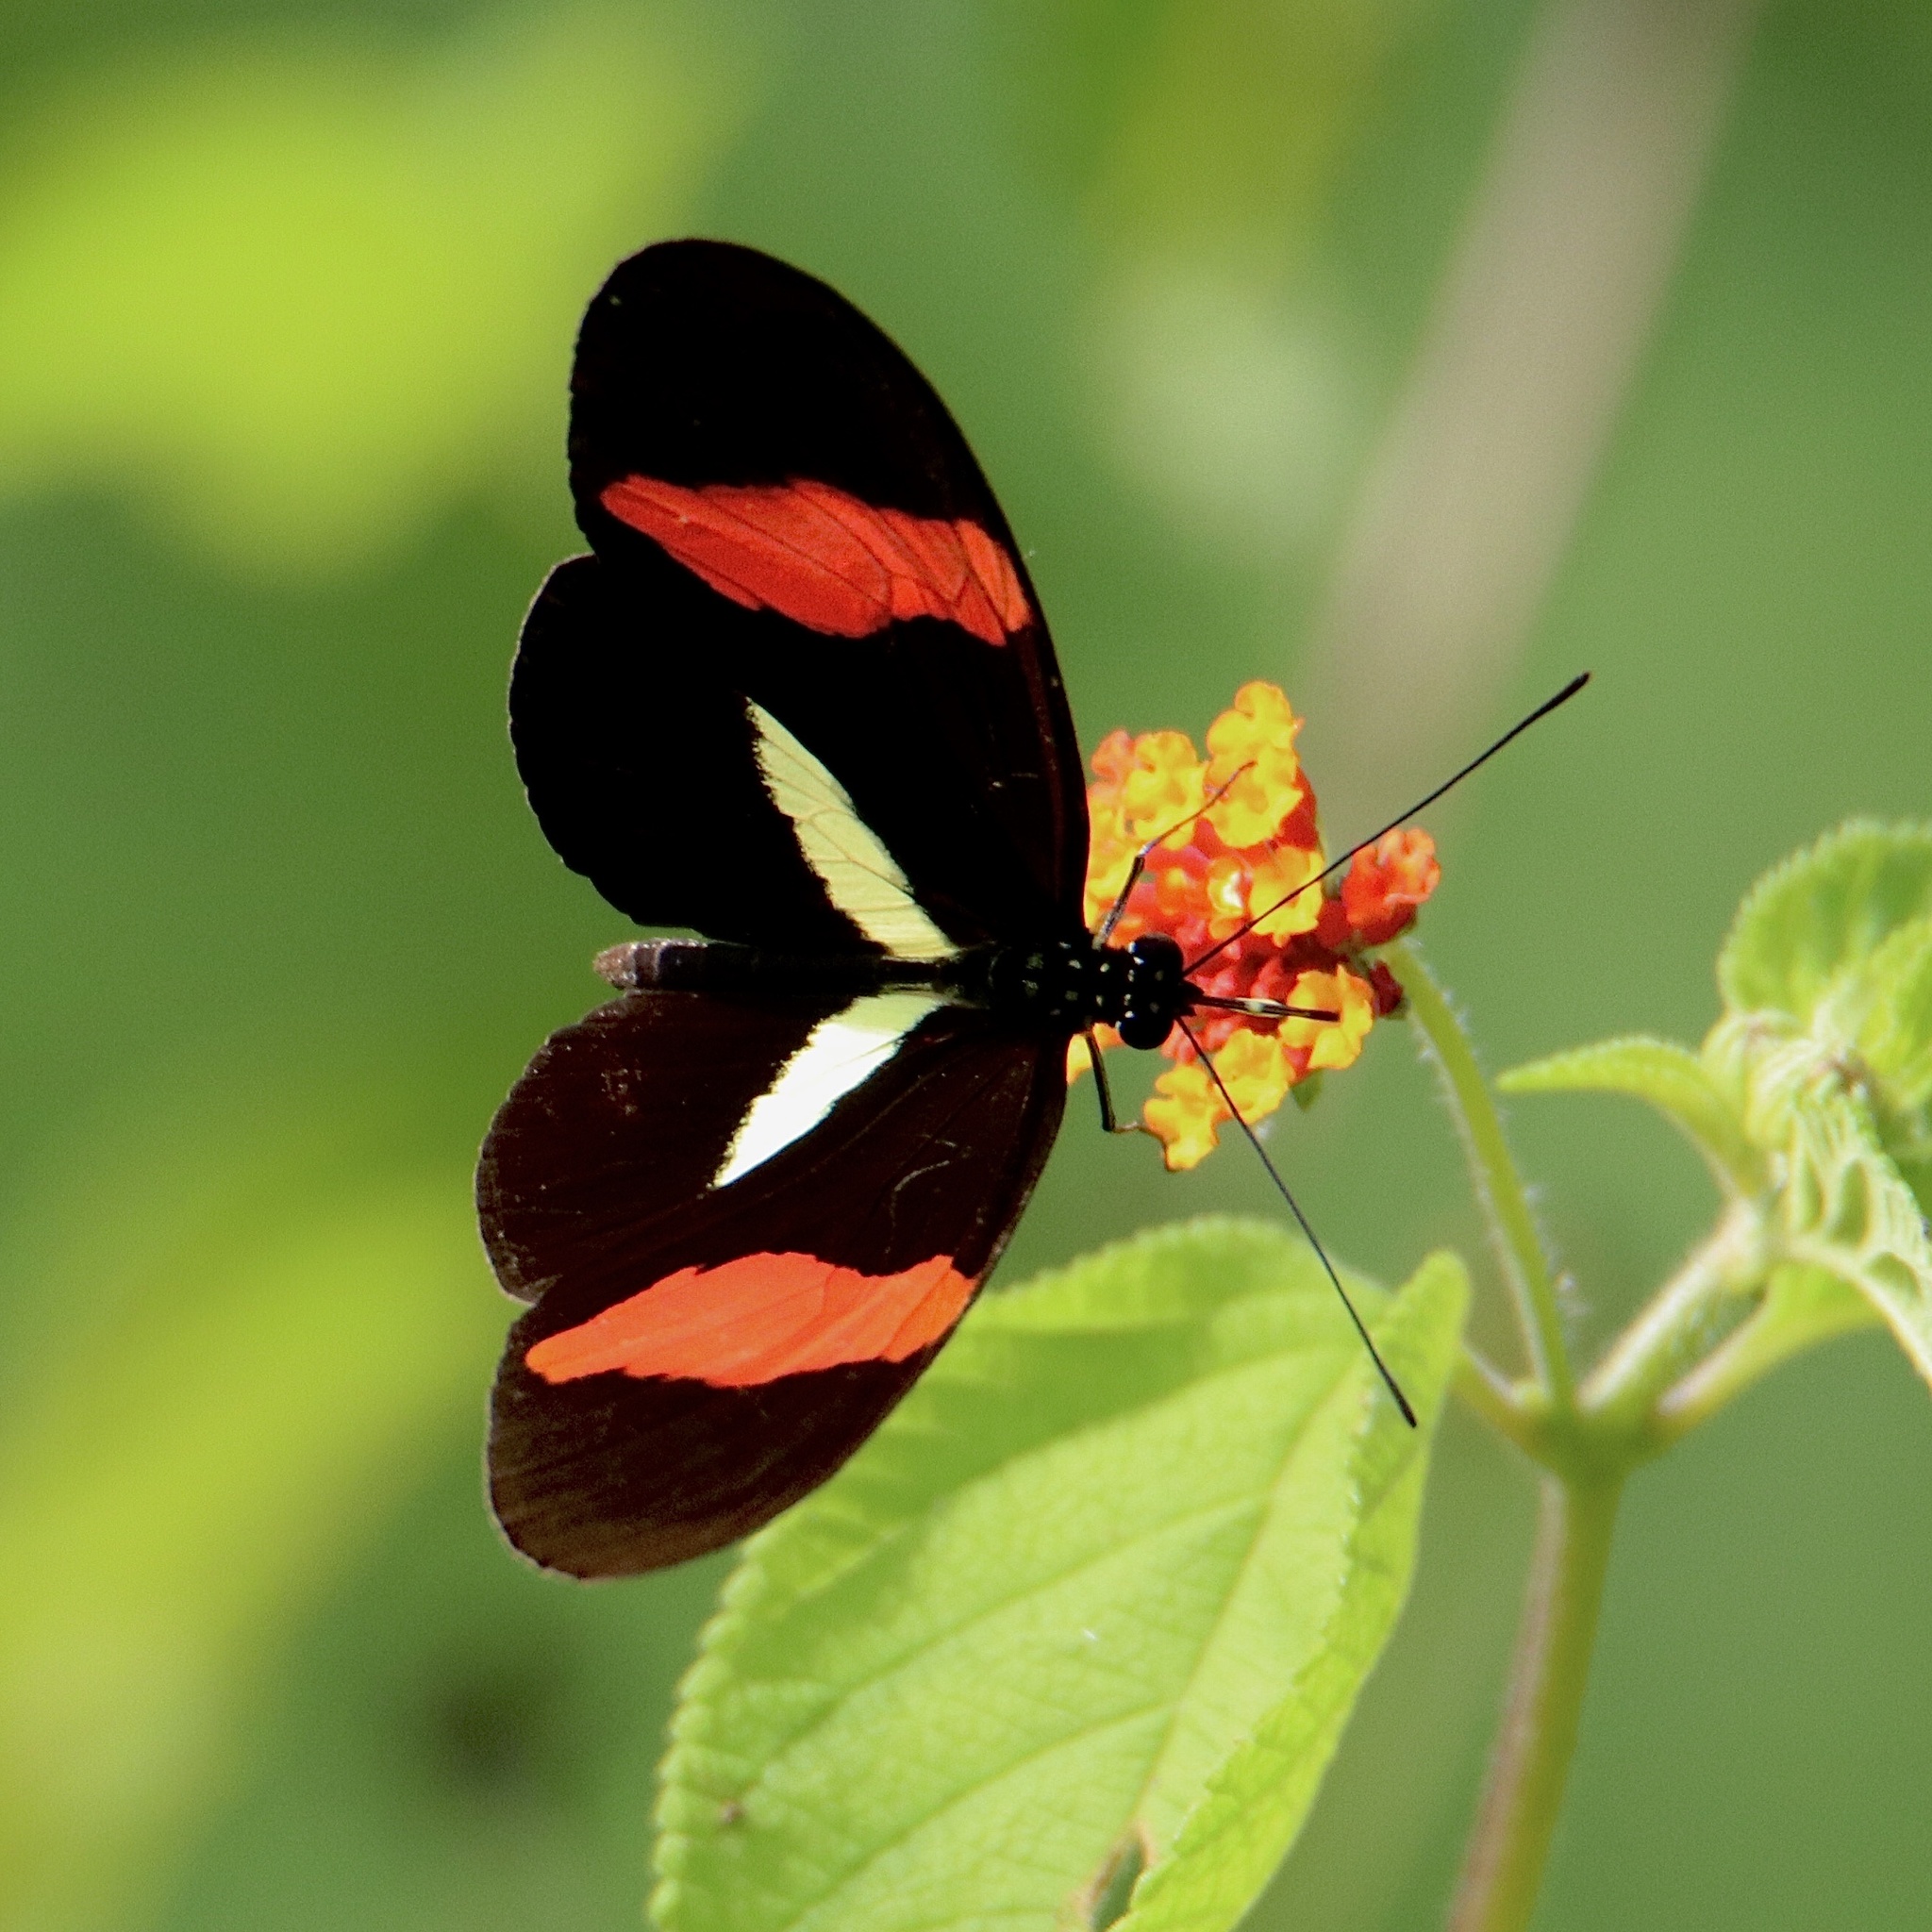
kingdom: Animalia
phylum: Arthropoda
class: Insecta
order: Lepidoptera
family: Nymphalidae
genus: Tirumala
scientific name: Tirumala petiverana
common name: Blue monarch
